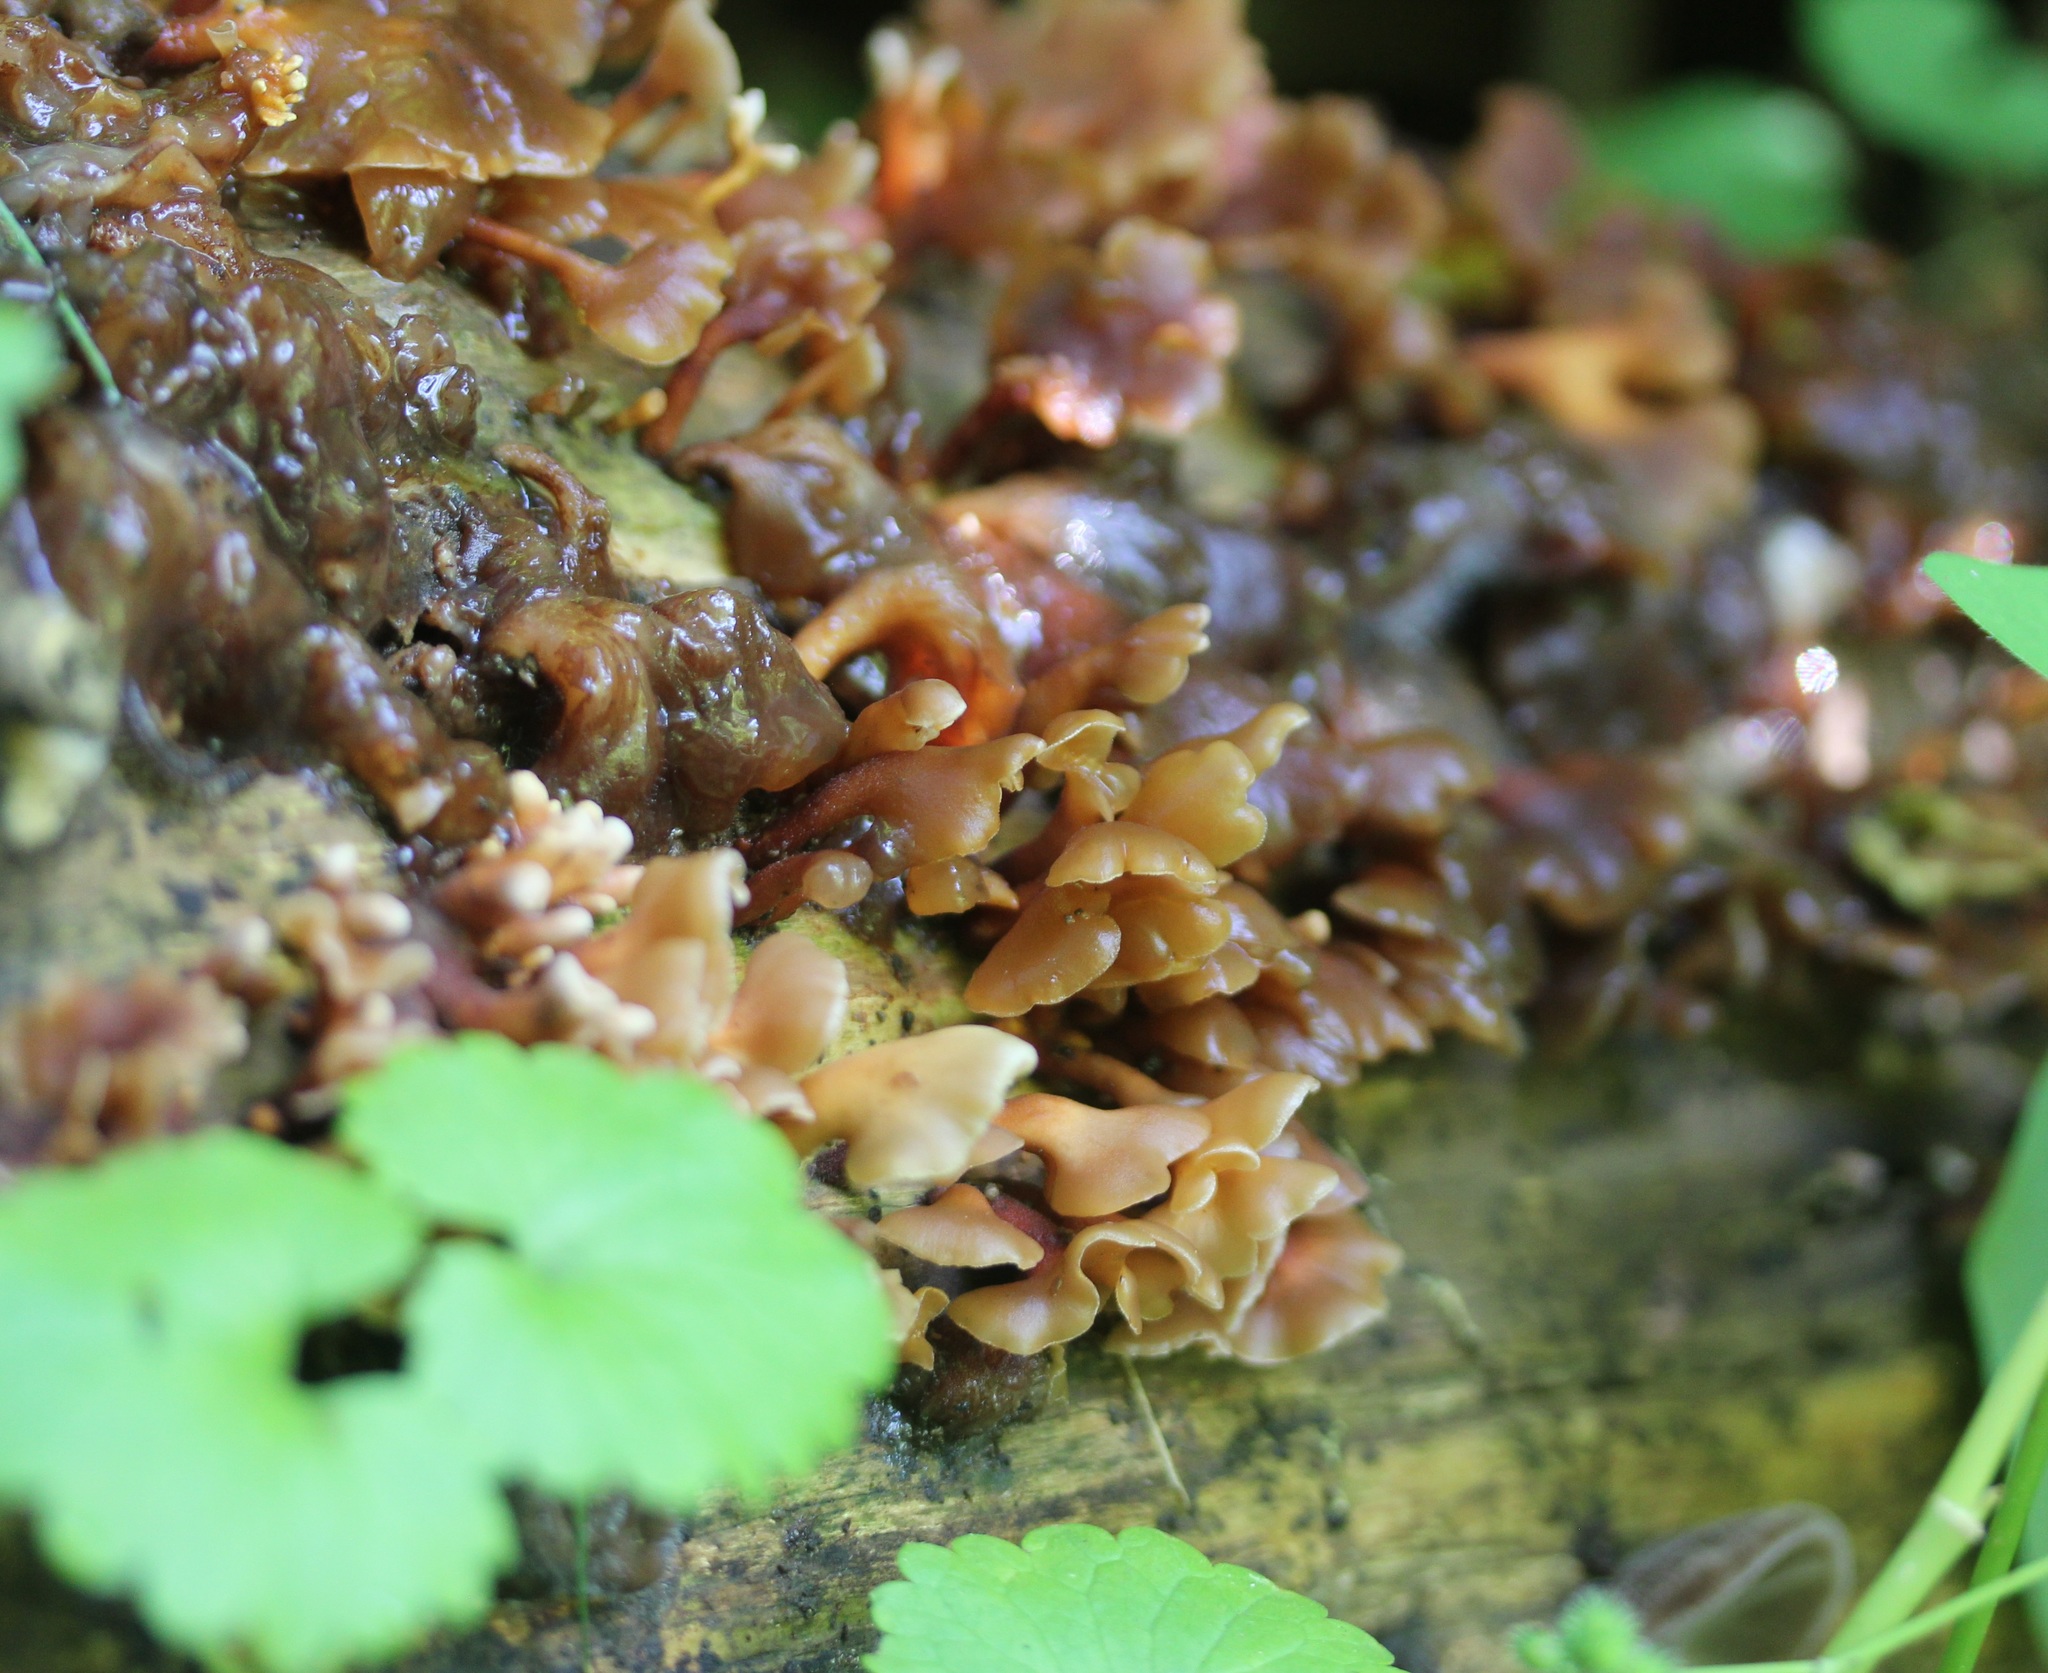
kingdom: Fungi
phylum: Basidiomycota
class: Dacrymycetes
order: Dacrymycetales
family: Dacrymycetaceae
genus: Dacryopinax
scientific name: Dacryopinax elegans
